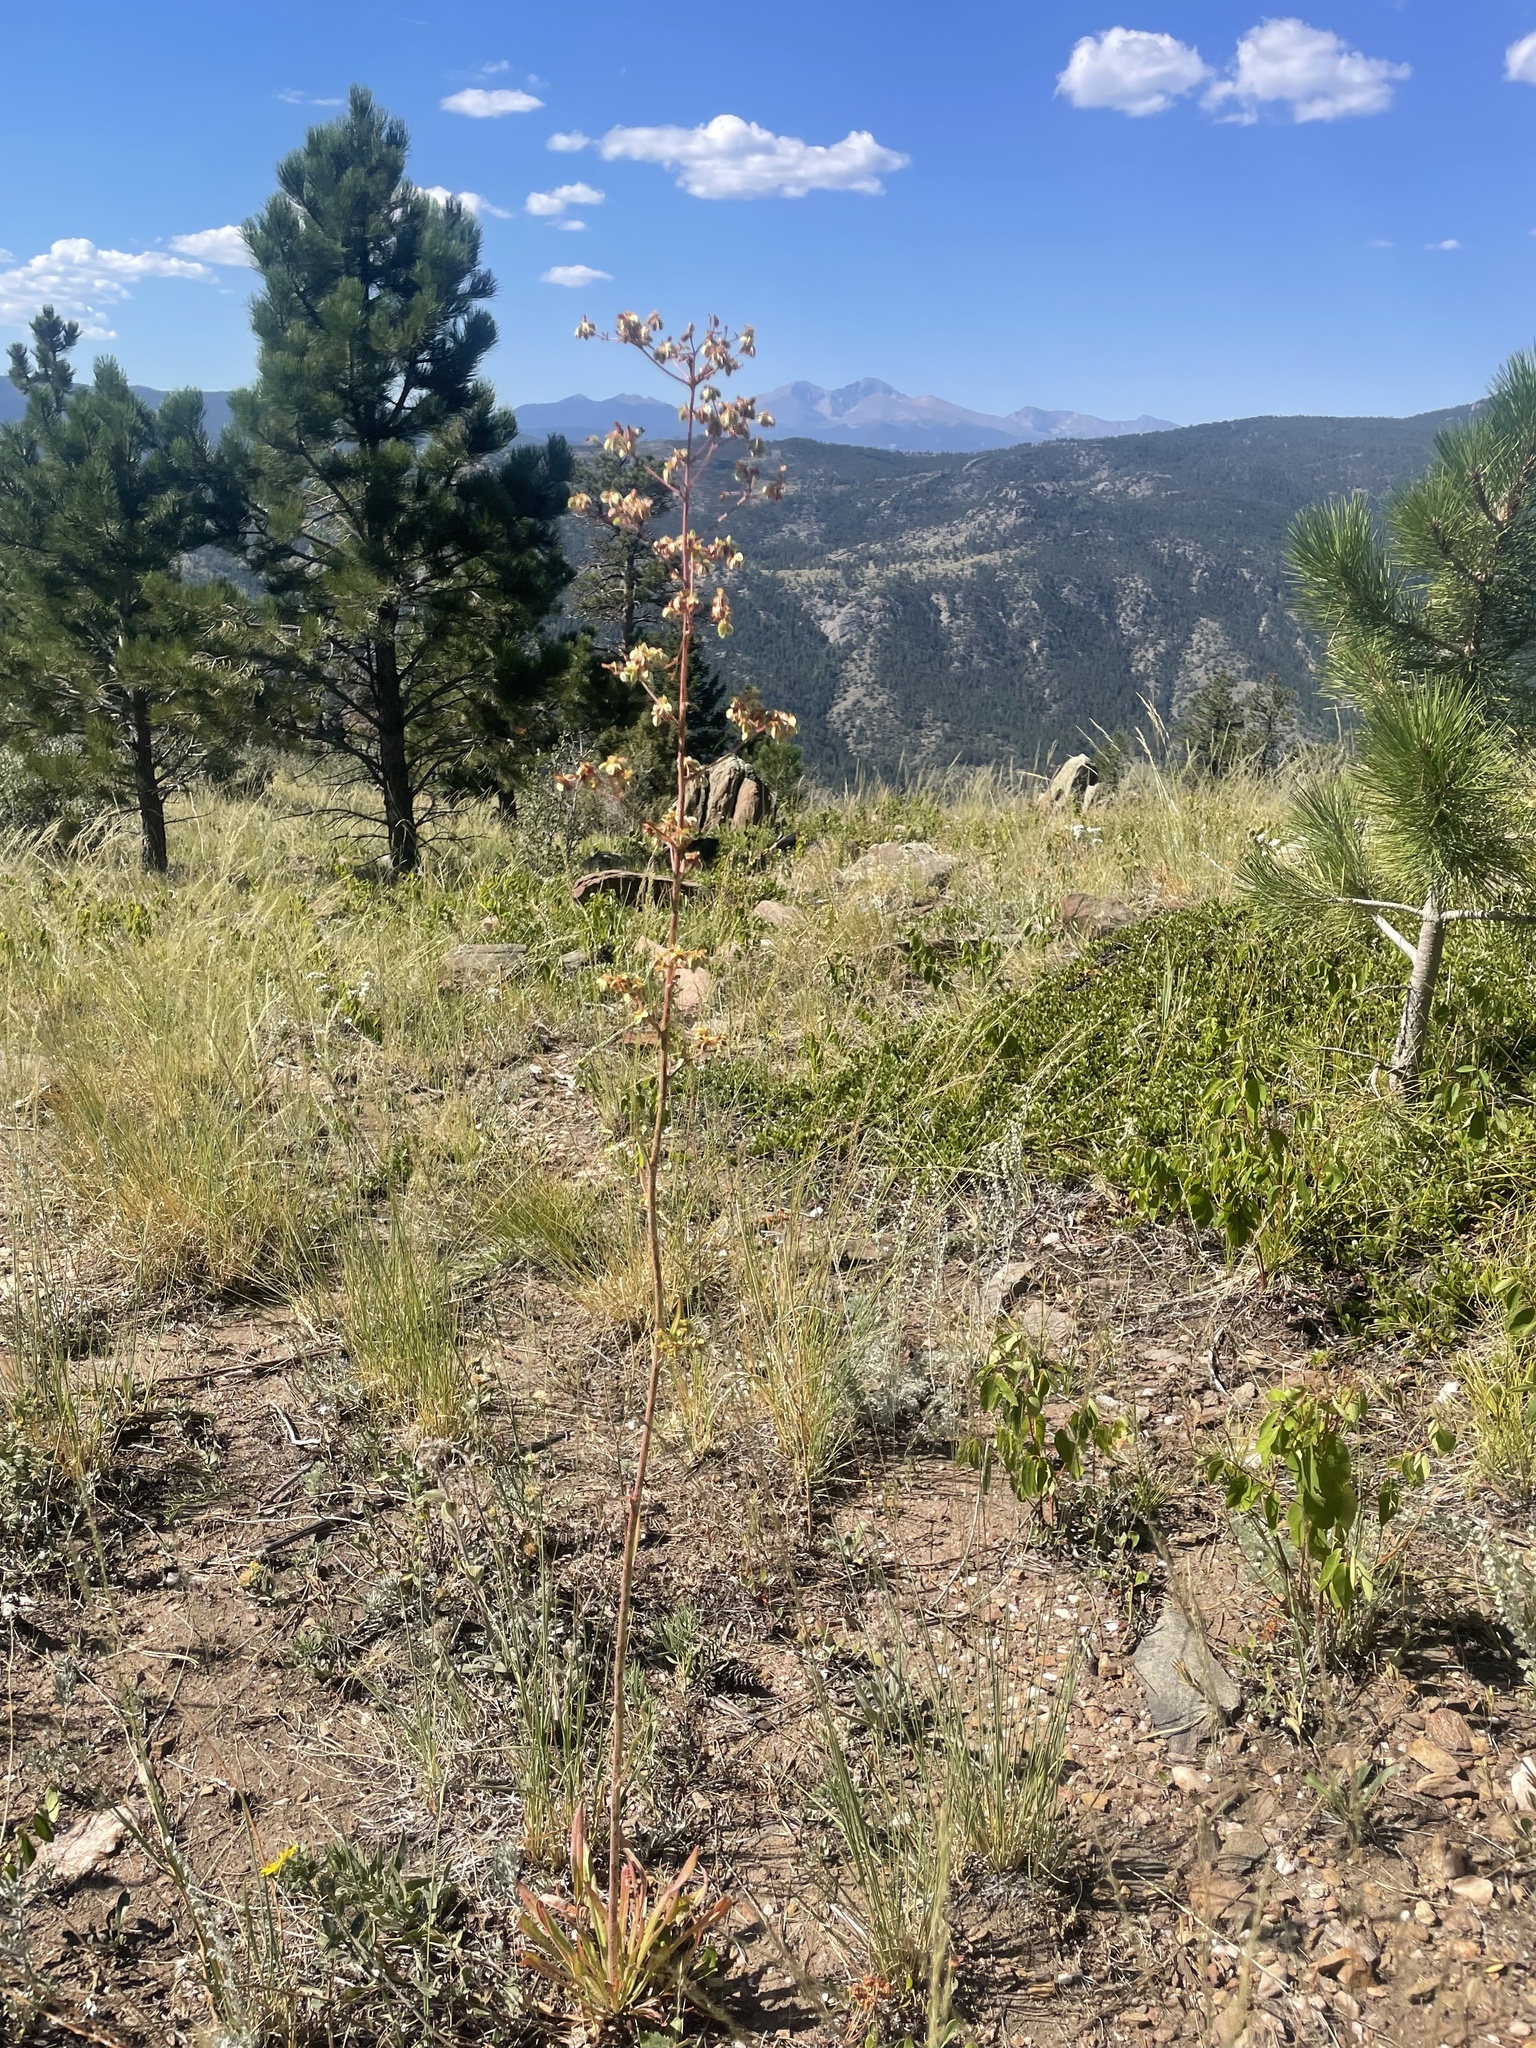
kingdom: Plantae
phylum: Tracheophyta
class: Magnoliopsida
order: Caryophyllales
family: Polygonaceae
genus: Eriogonum
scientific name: Eriogonum alatum
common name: Winged eriogonum
